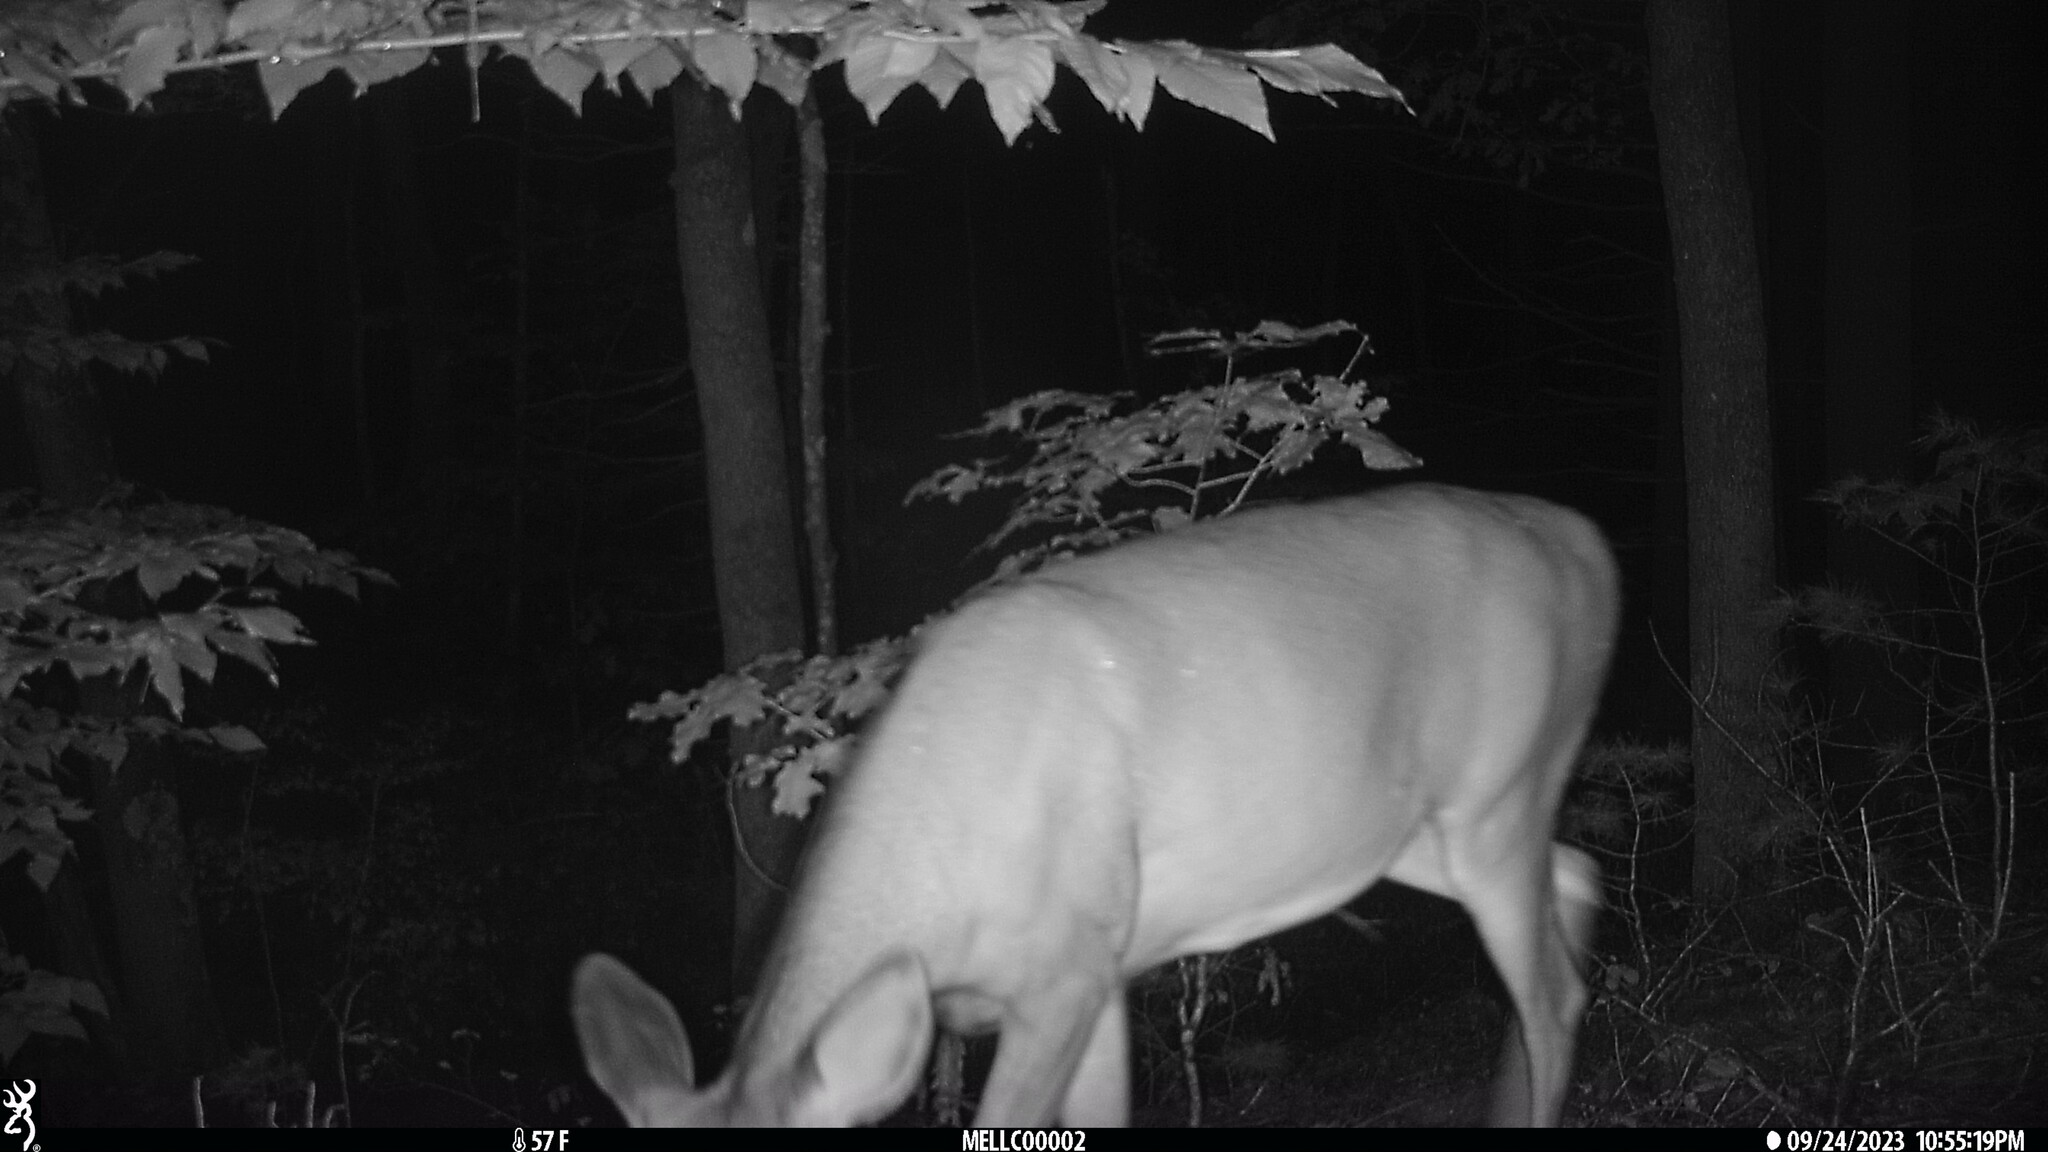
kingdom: Animalia
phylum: Chordata
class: Mammalia
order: Artiodactyla
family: Cervidae
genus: Odocoileus
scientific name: Odocoileus virginianus
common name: White-tailed deer
